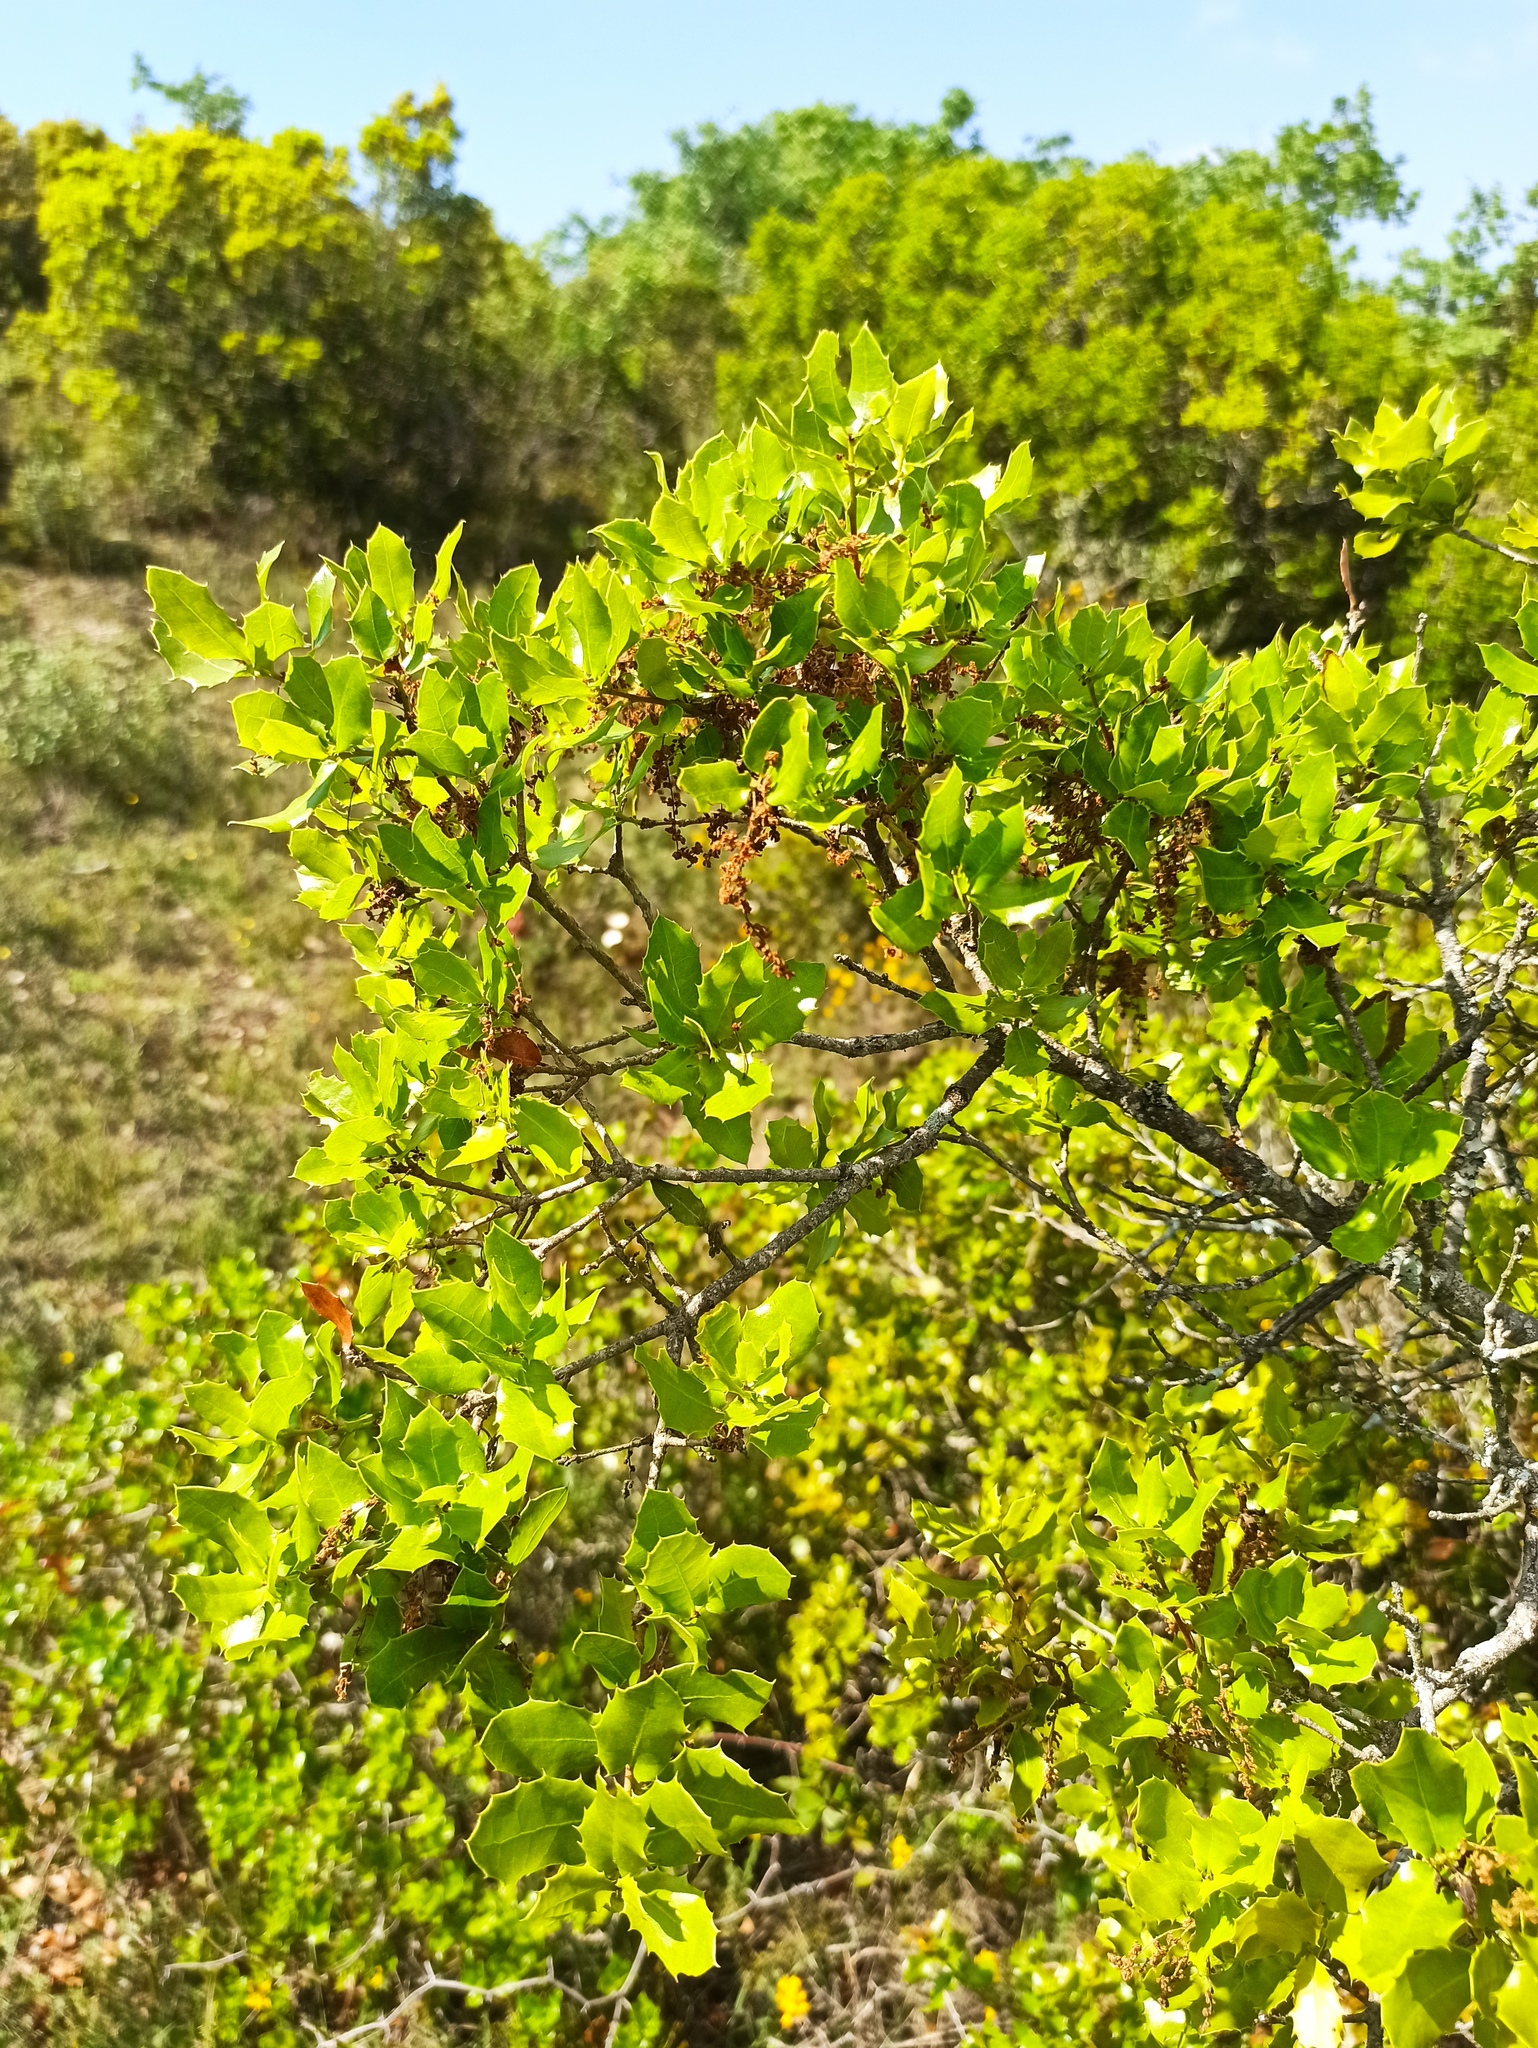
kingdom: Plantae
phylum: Tracheophyta
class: Magnoliopsida
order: Fagales
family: Fagaceae
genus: Quercus
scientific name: Quercus coccifera
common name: Kermes oak
